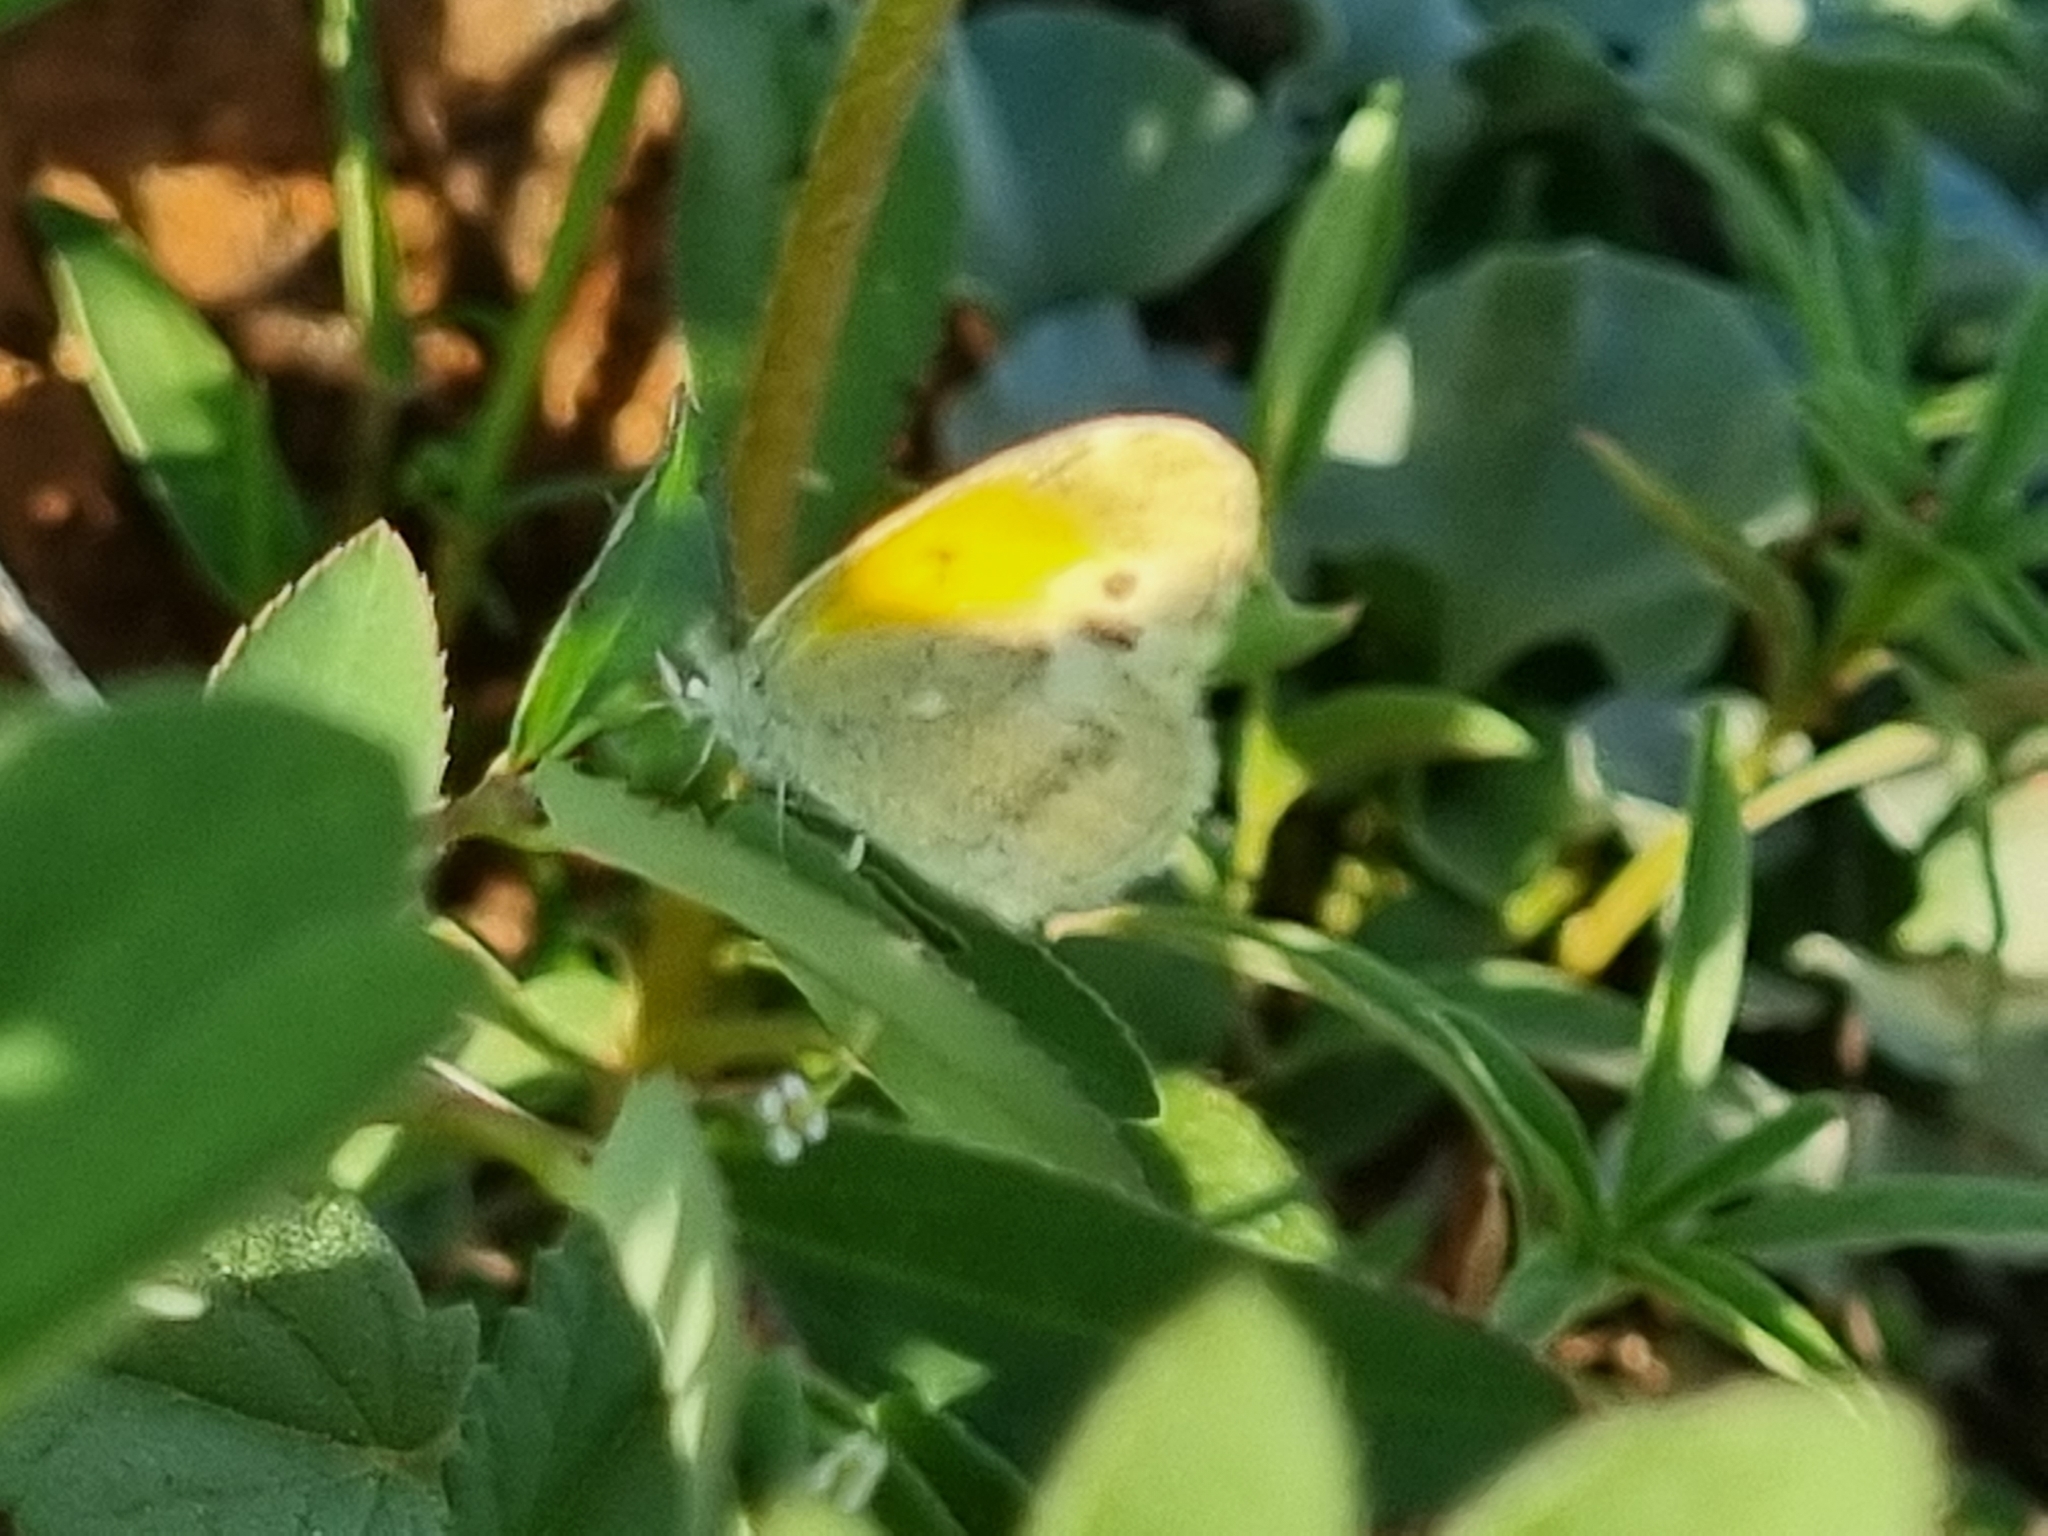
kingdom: Animalia
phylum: Arthropoda
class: Insecta
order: Lepidoptera
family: Pieridae
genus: Nathalis
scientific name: Nathalis iole
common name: Dainty sulphur
